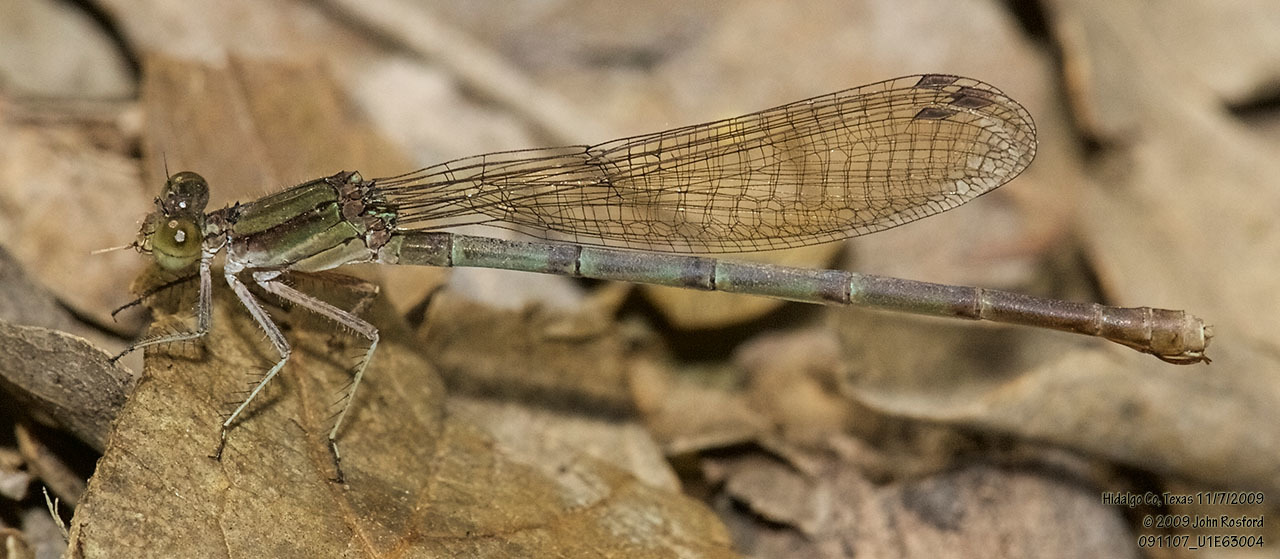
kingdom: Animalia
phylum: Arthropoda
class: Insecta
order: Odonata
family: Coenagrionidae
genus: Argia
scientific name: Argia sedula
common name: Blue-ringed dancer
